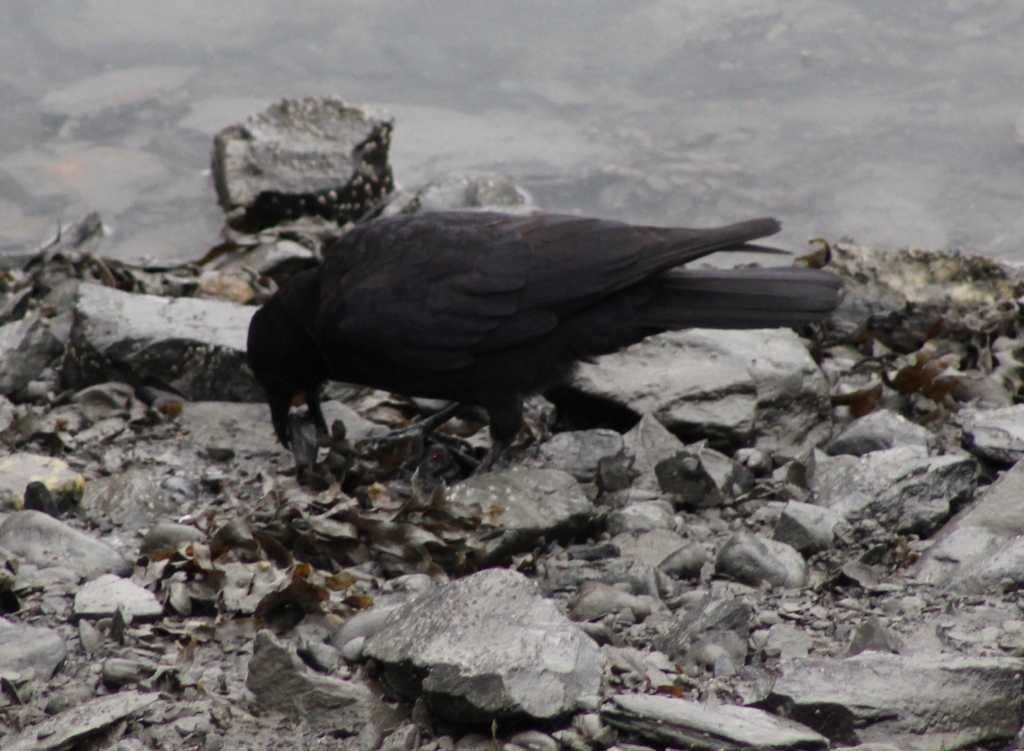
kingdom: Animalia
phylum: Chordata
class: Aves
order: Passeriformes
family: Corvidae
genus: Corvus
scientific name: Corvus brachyrhynchos
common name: American crow
